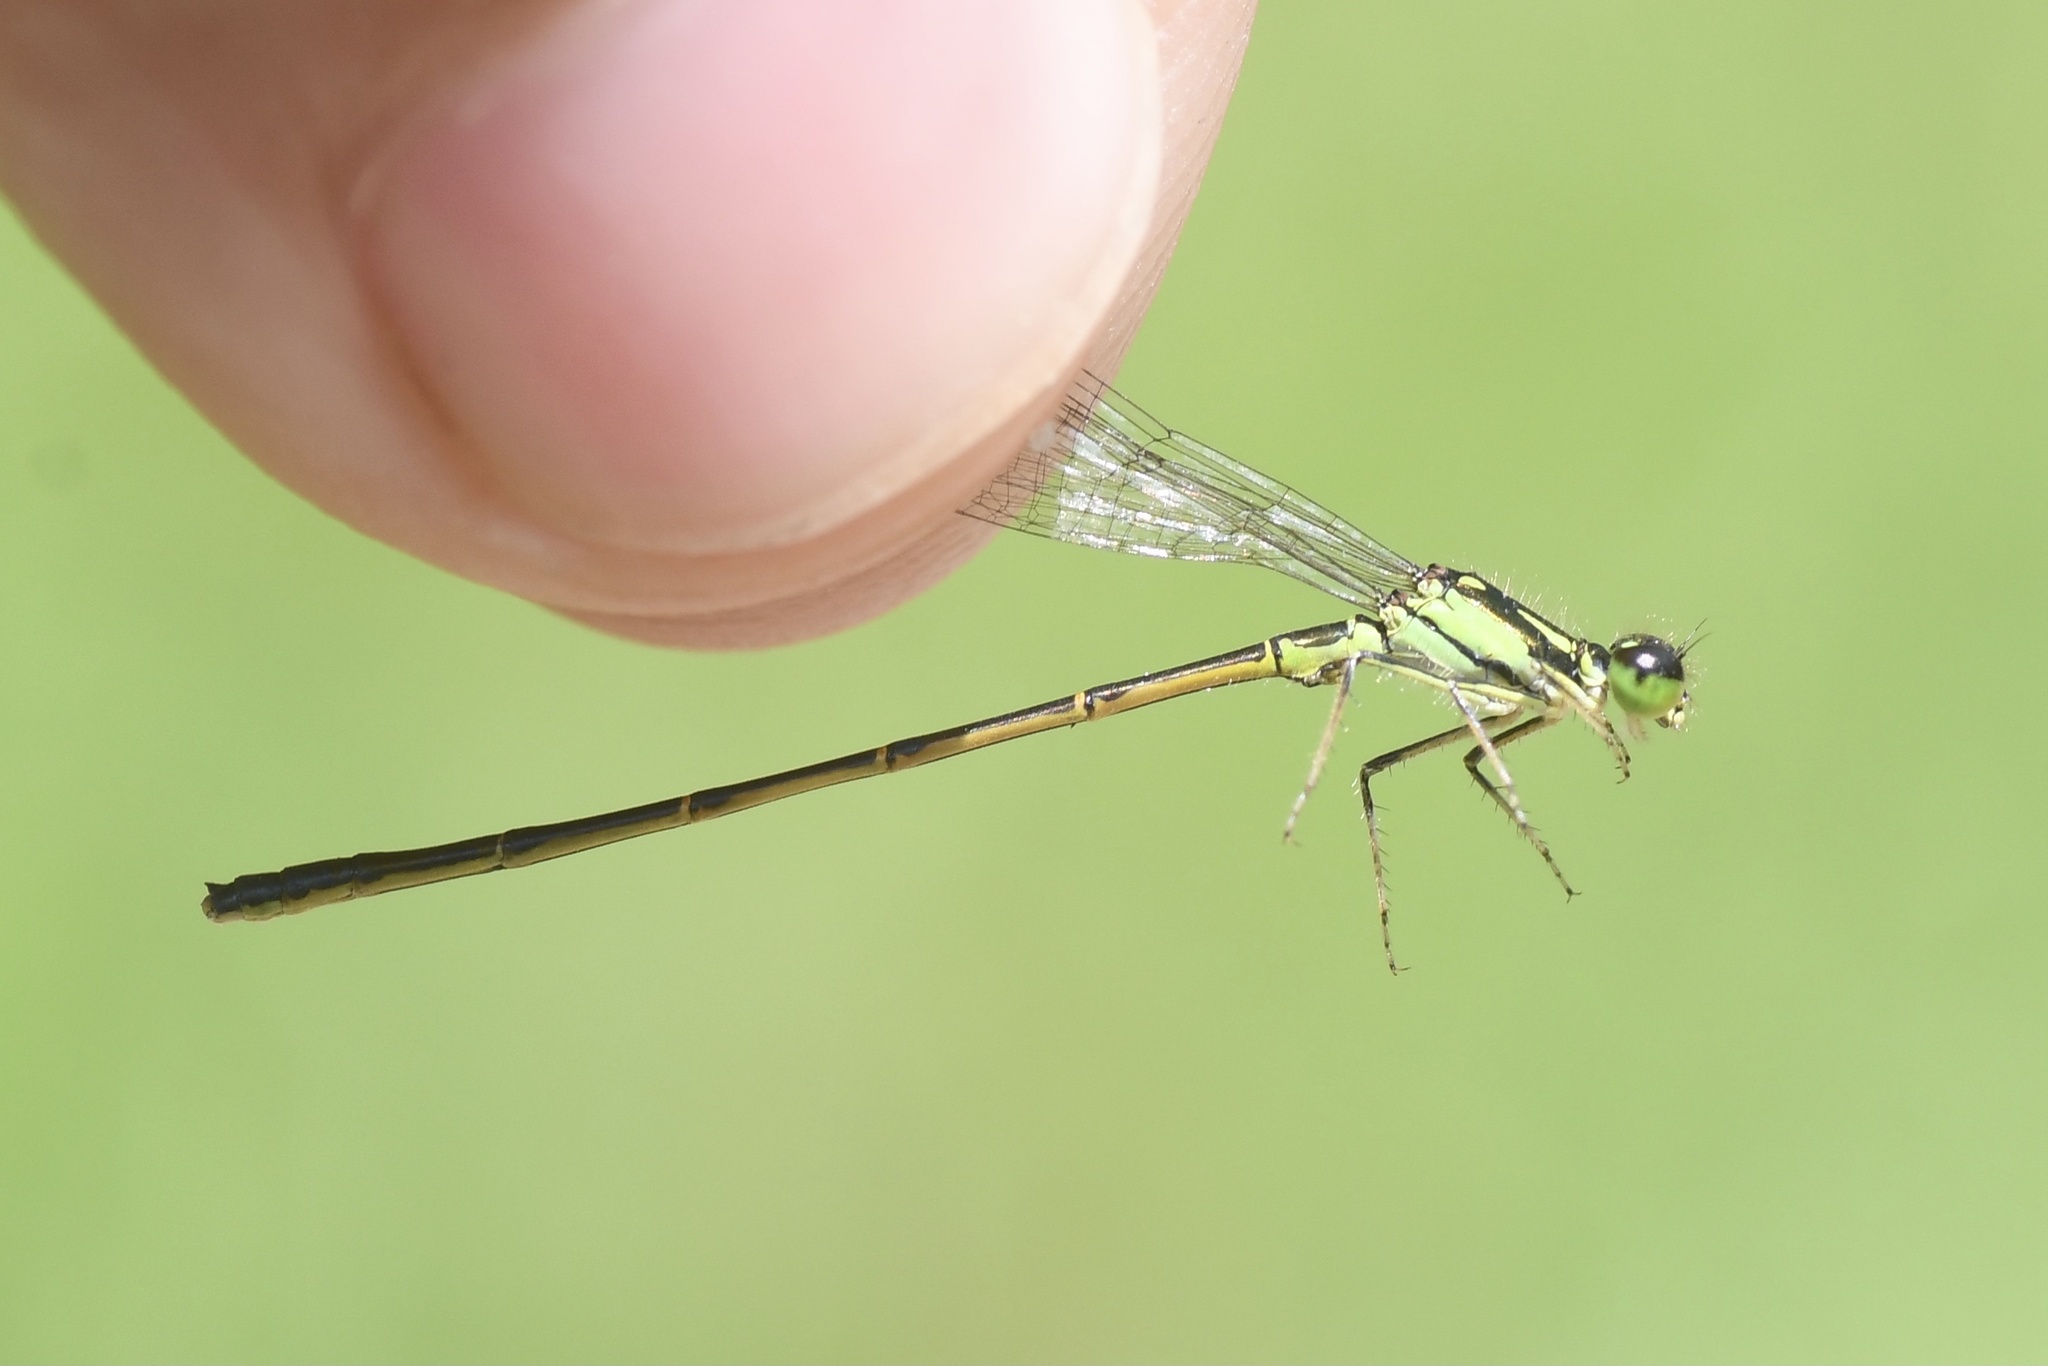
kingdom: Animalia
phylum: Arthropoda
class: Insecta
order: Odonata
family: Coenagrionidae
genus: Ischnura
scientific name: Ischnura posita
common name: Fragile forktail
